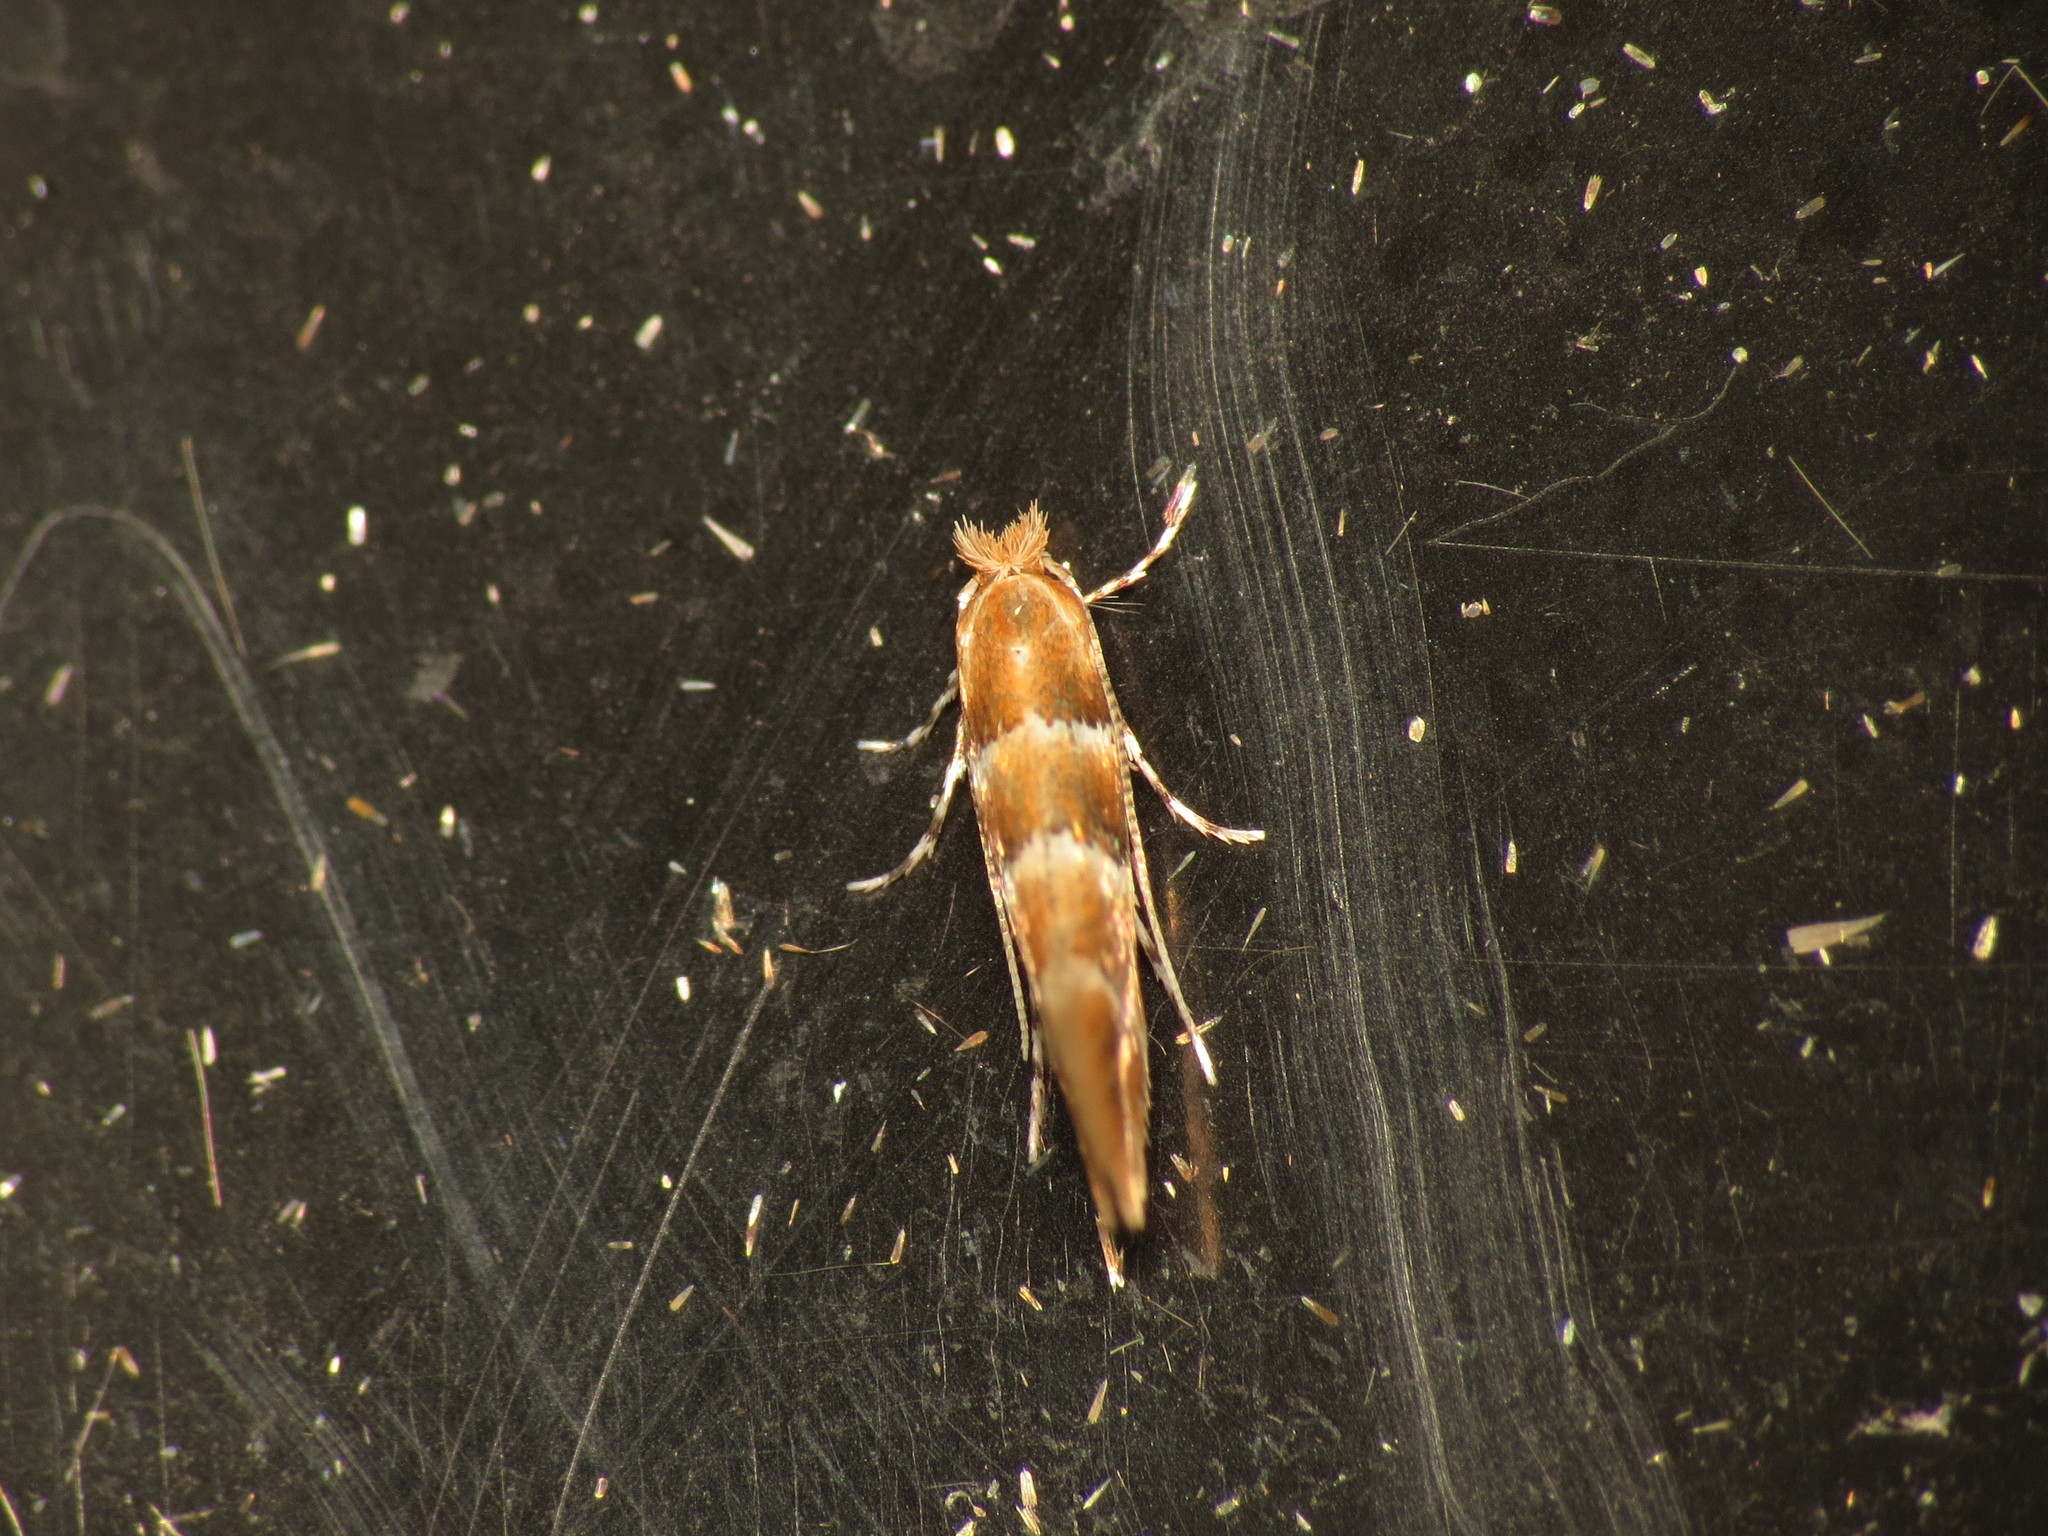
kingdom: Animalia
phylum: Arthropoda
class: Insecta
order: Lepidoptera
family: Gracillariidae
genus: Phyllonorycter
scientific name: Phyllonorycter tristrigella
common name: Elm midget
